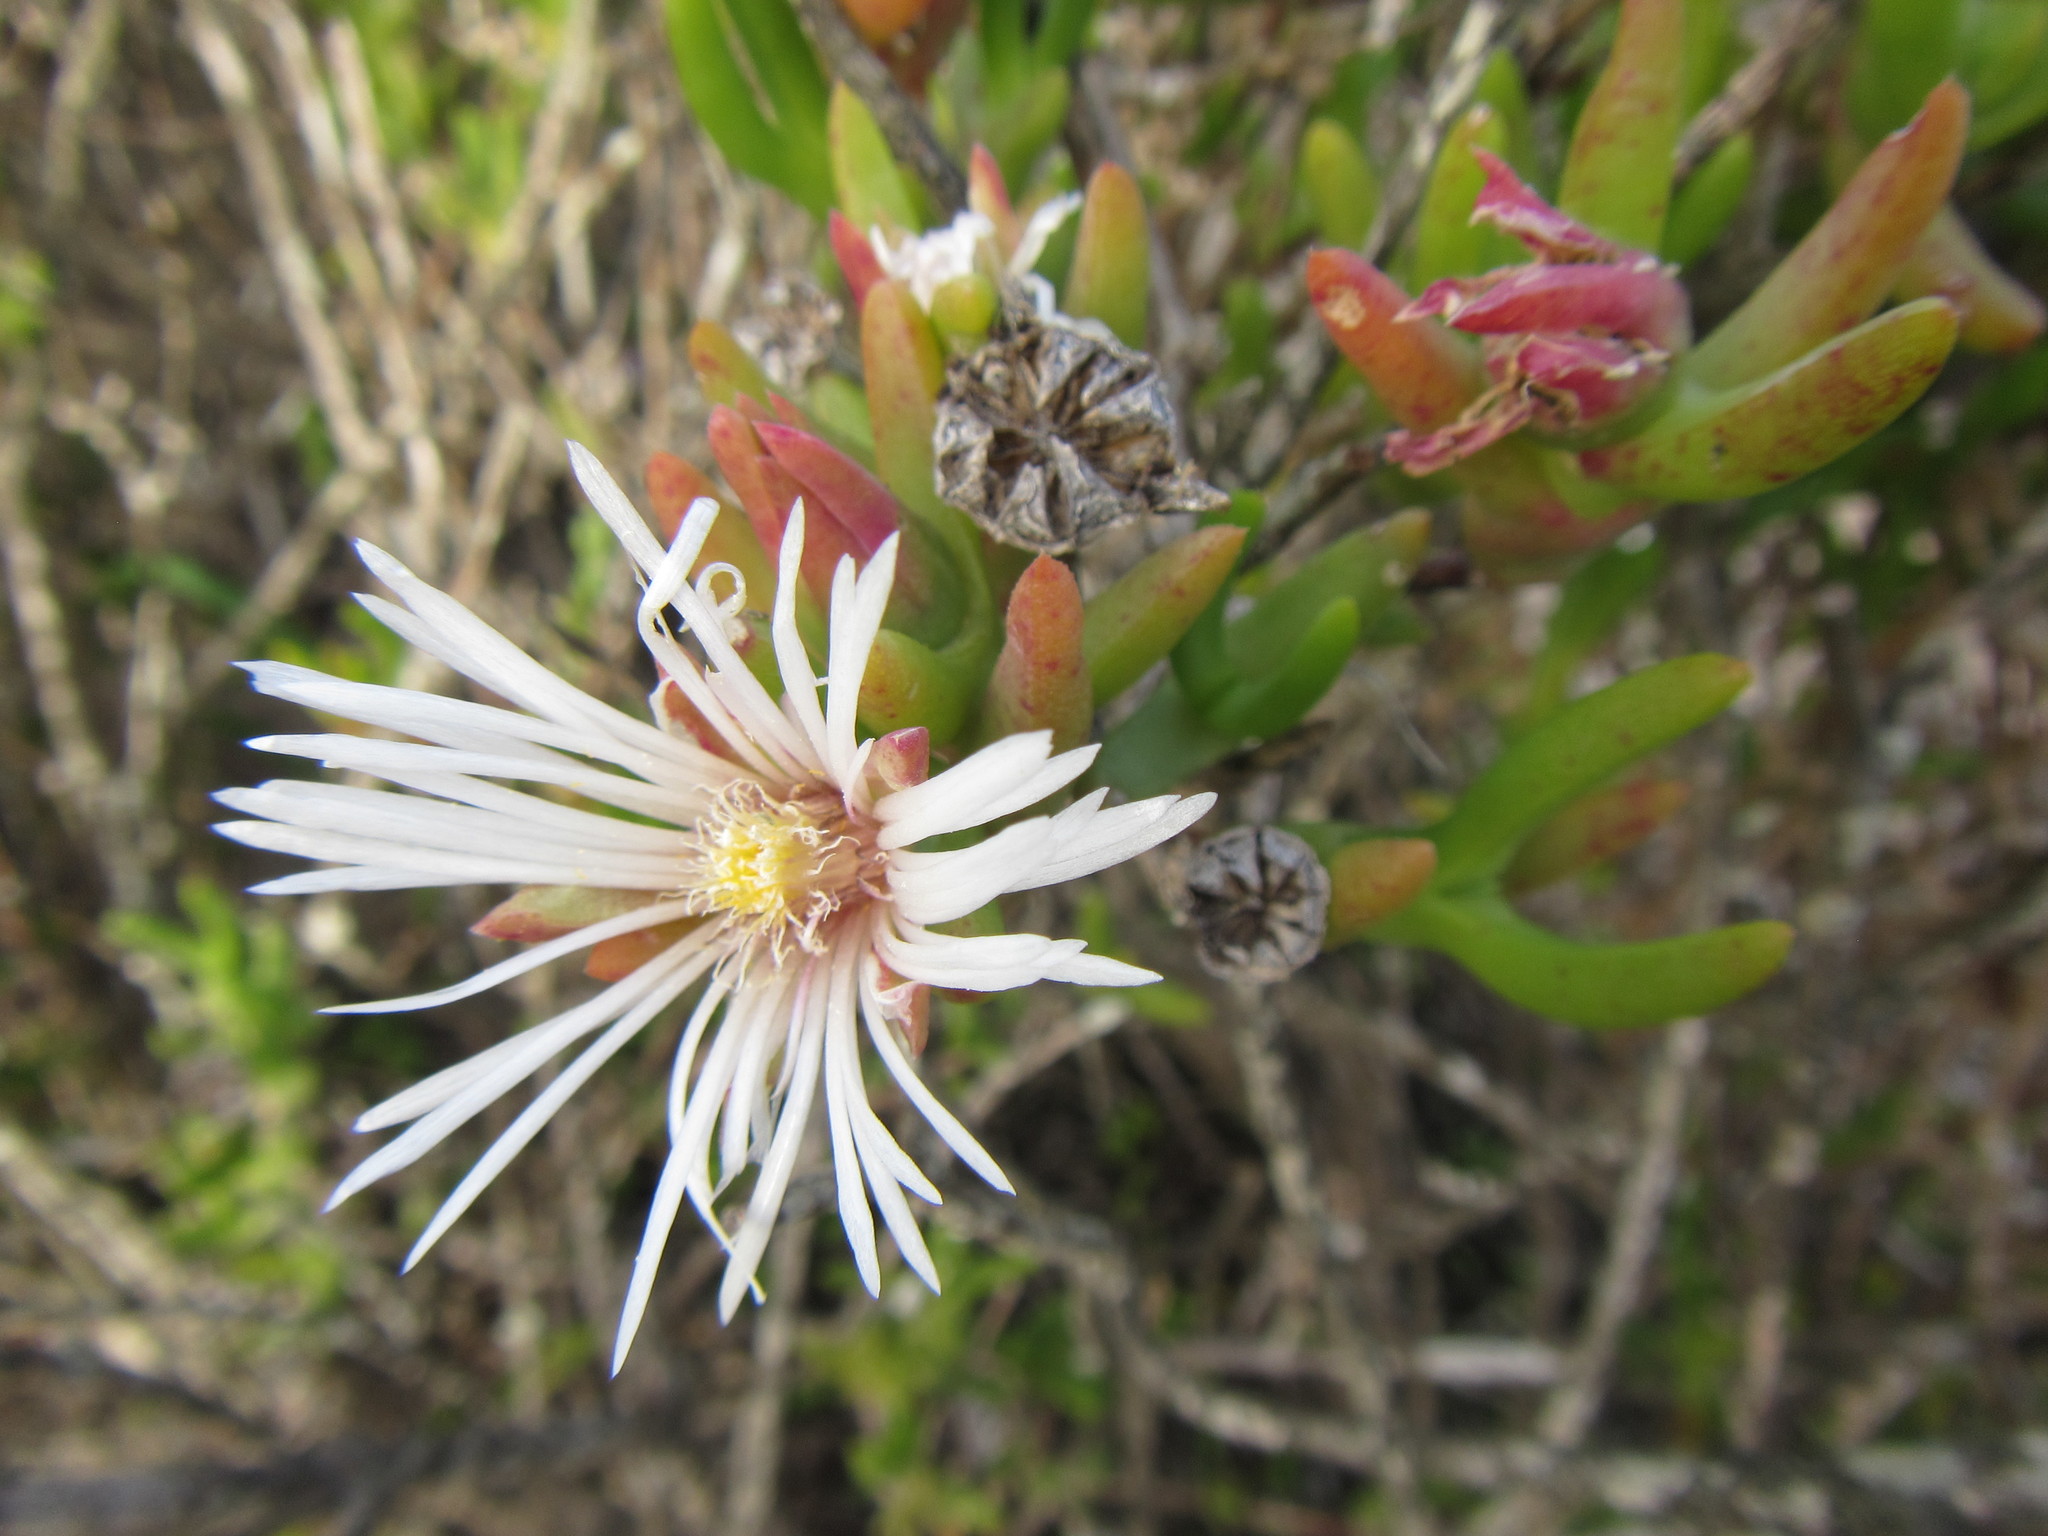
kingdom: Plantae
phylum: Tracheophyta
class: Magnoliopsida
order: Caryophyllales
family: Aizoaceae
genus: Vanzijlia
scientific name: Vanzijlia annulata
